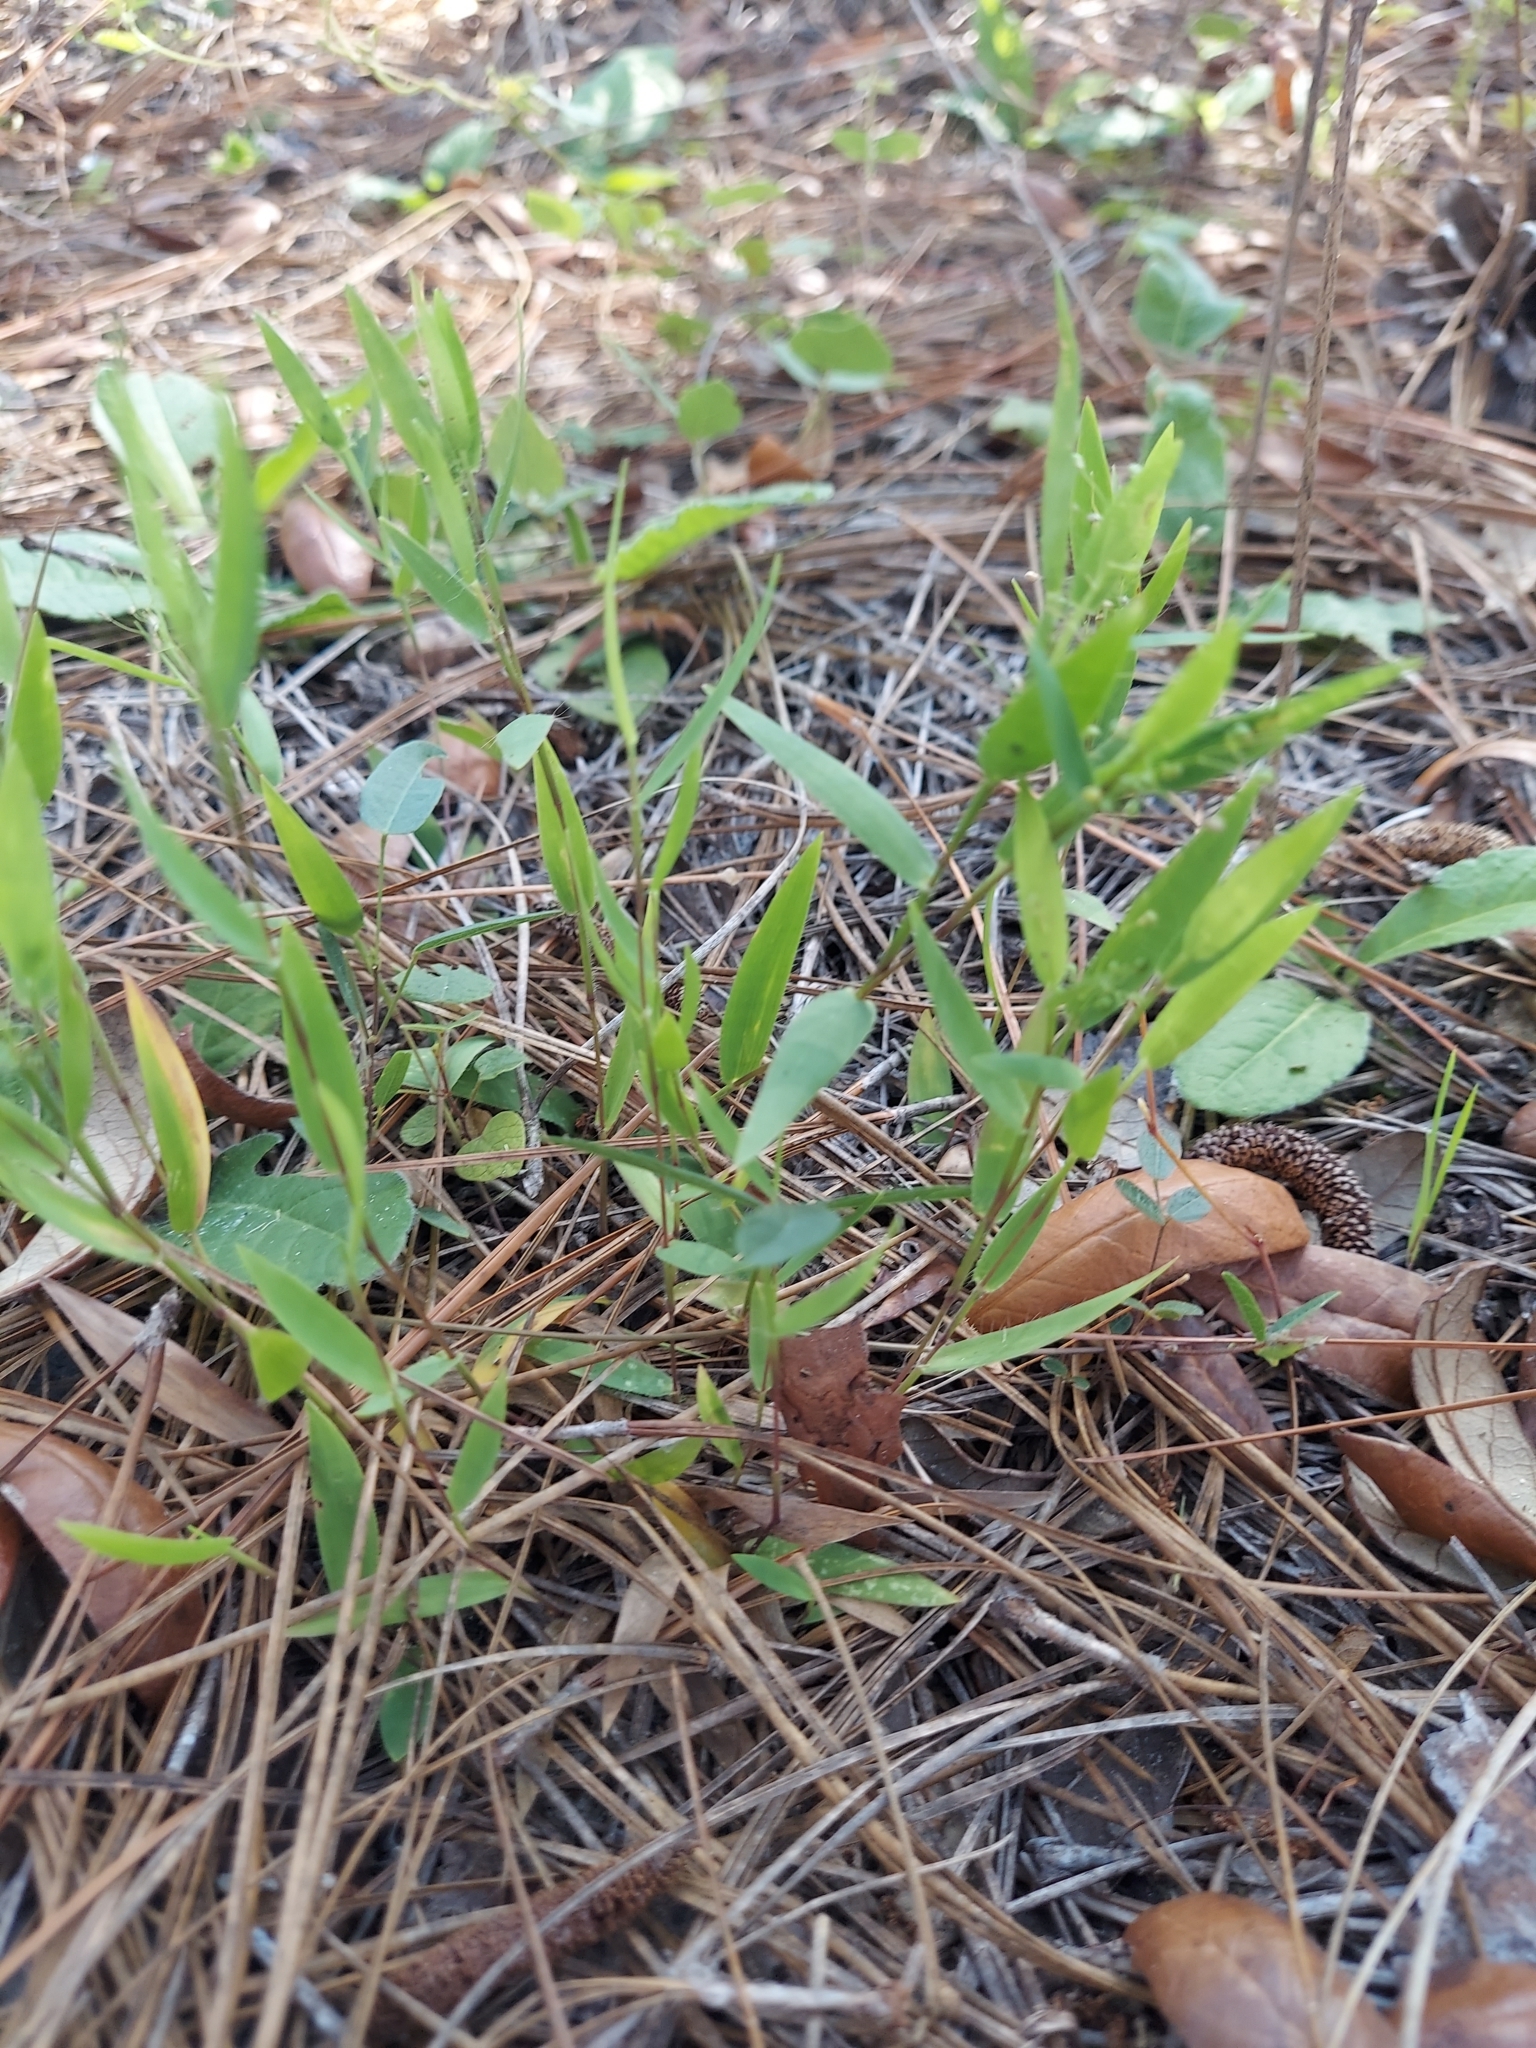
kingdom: Plantae
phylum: Tracheophyta
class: Liliopsida
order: Poales
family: Poaceae
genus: Dichanthelium
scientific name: Dichanthelium
